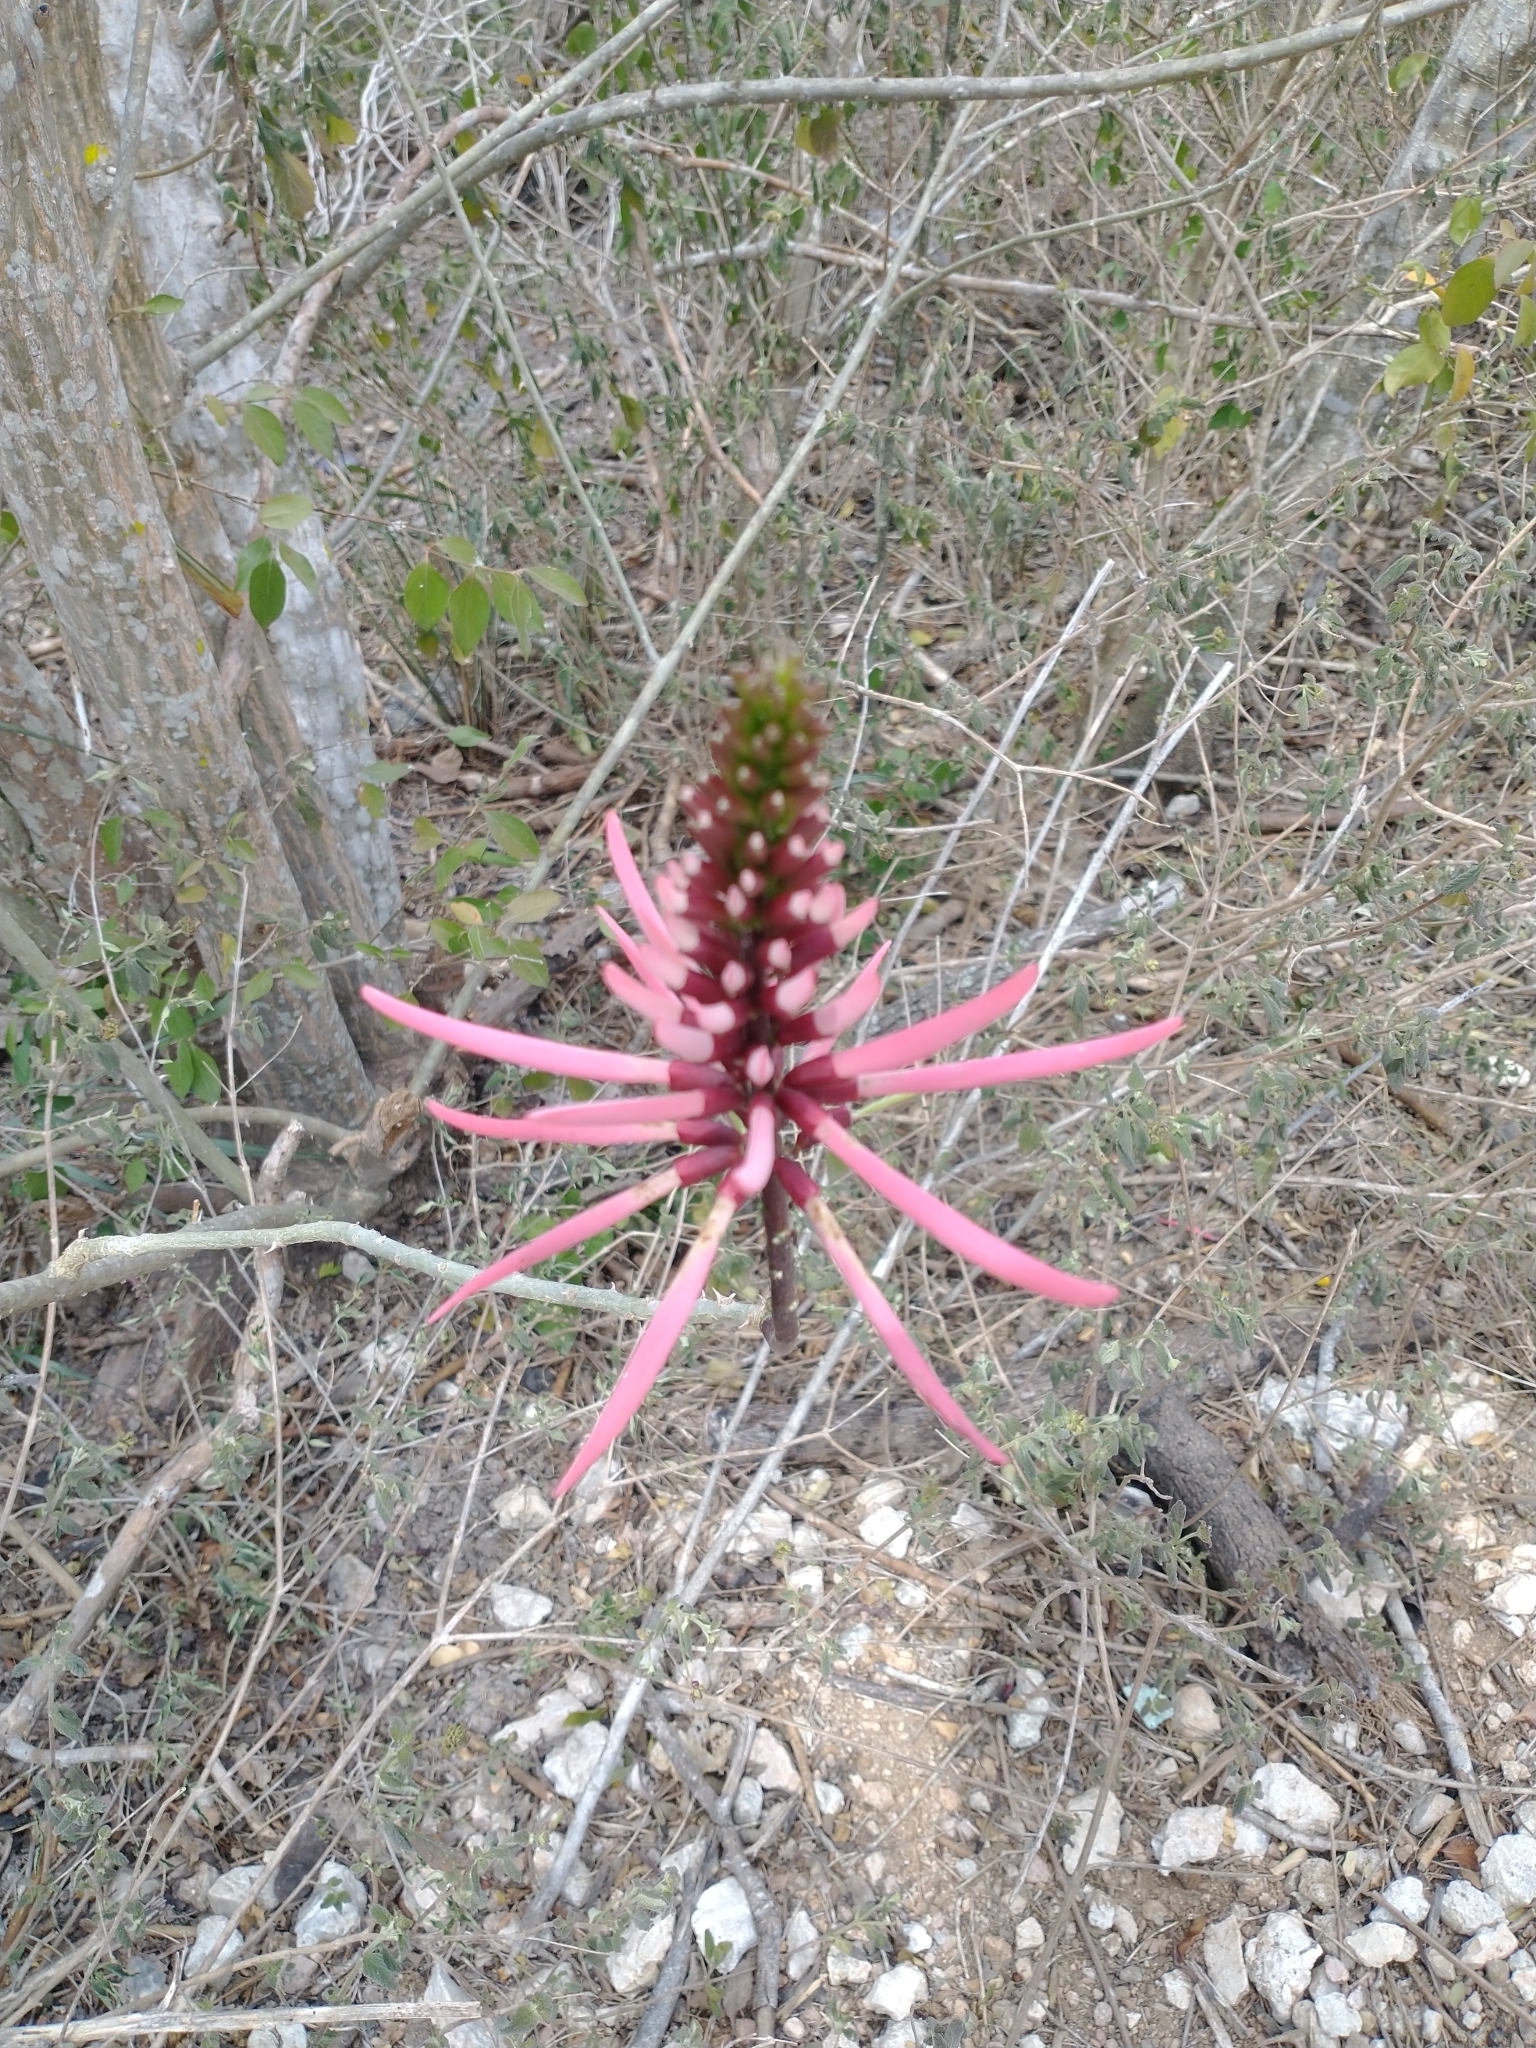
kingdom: Plantae
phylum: Tracheophyta
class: Magnoliopsida
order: Fabales
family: Fabaceae
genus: Erythrina
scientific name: Erythrina herbacea
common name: Coral-bean
